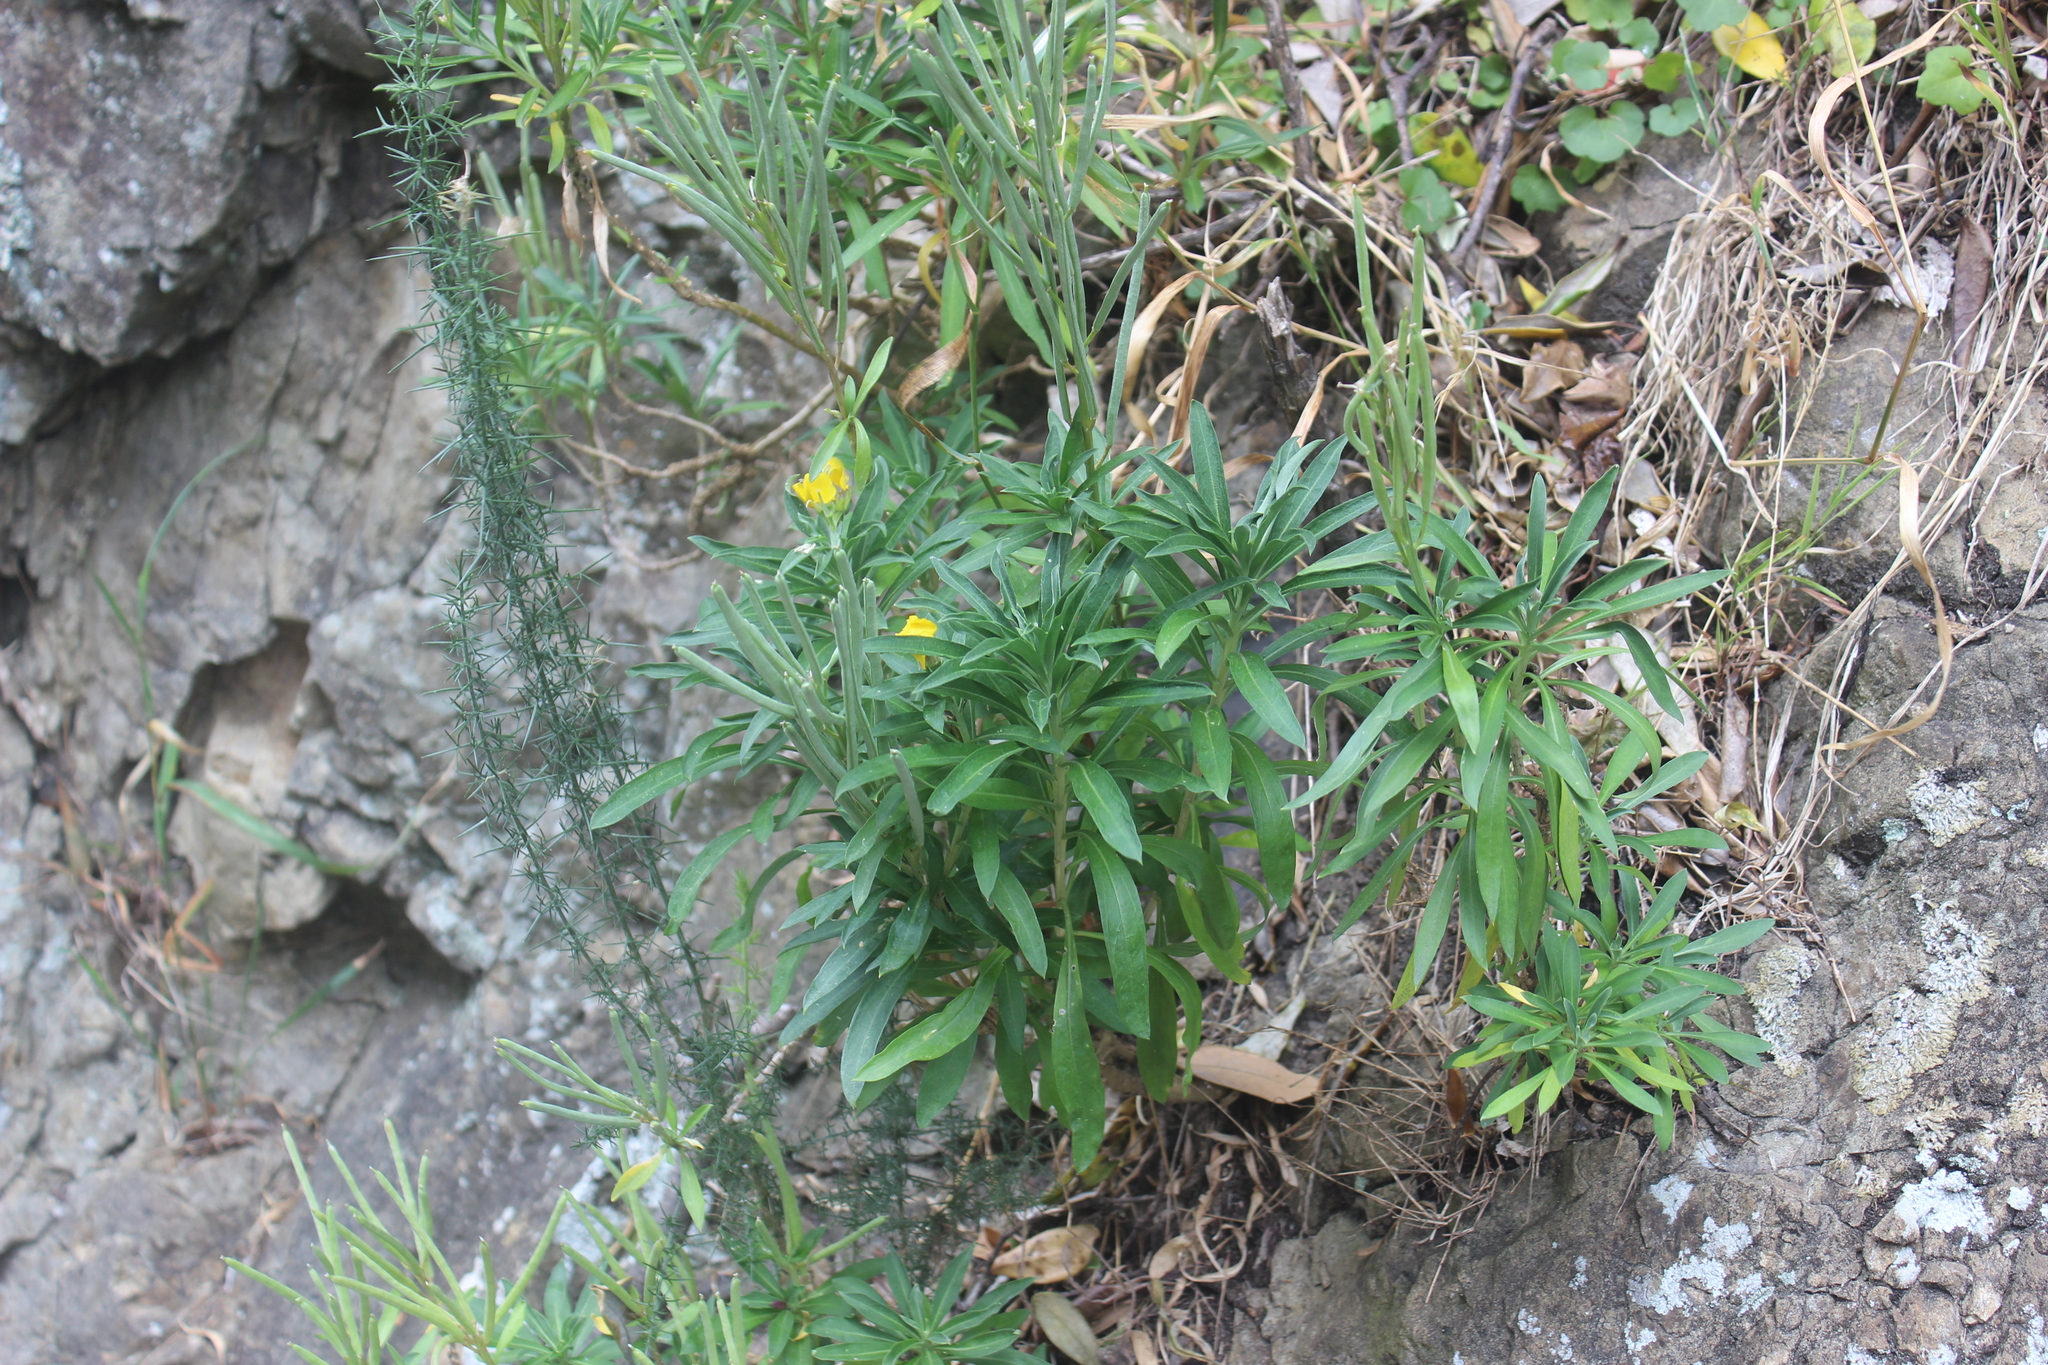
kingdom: Plantae
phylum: Tracheophyta
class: Magnoliopsida
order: Brassicales
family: Brassicaceae
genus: Erysimum
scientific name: Erysimum cheiri
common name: Wallflower
